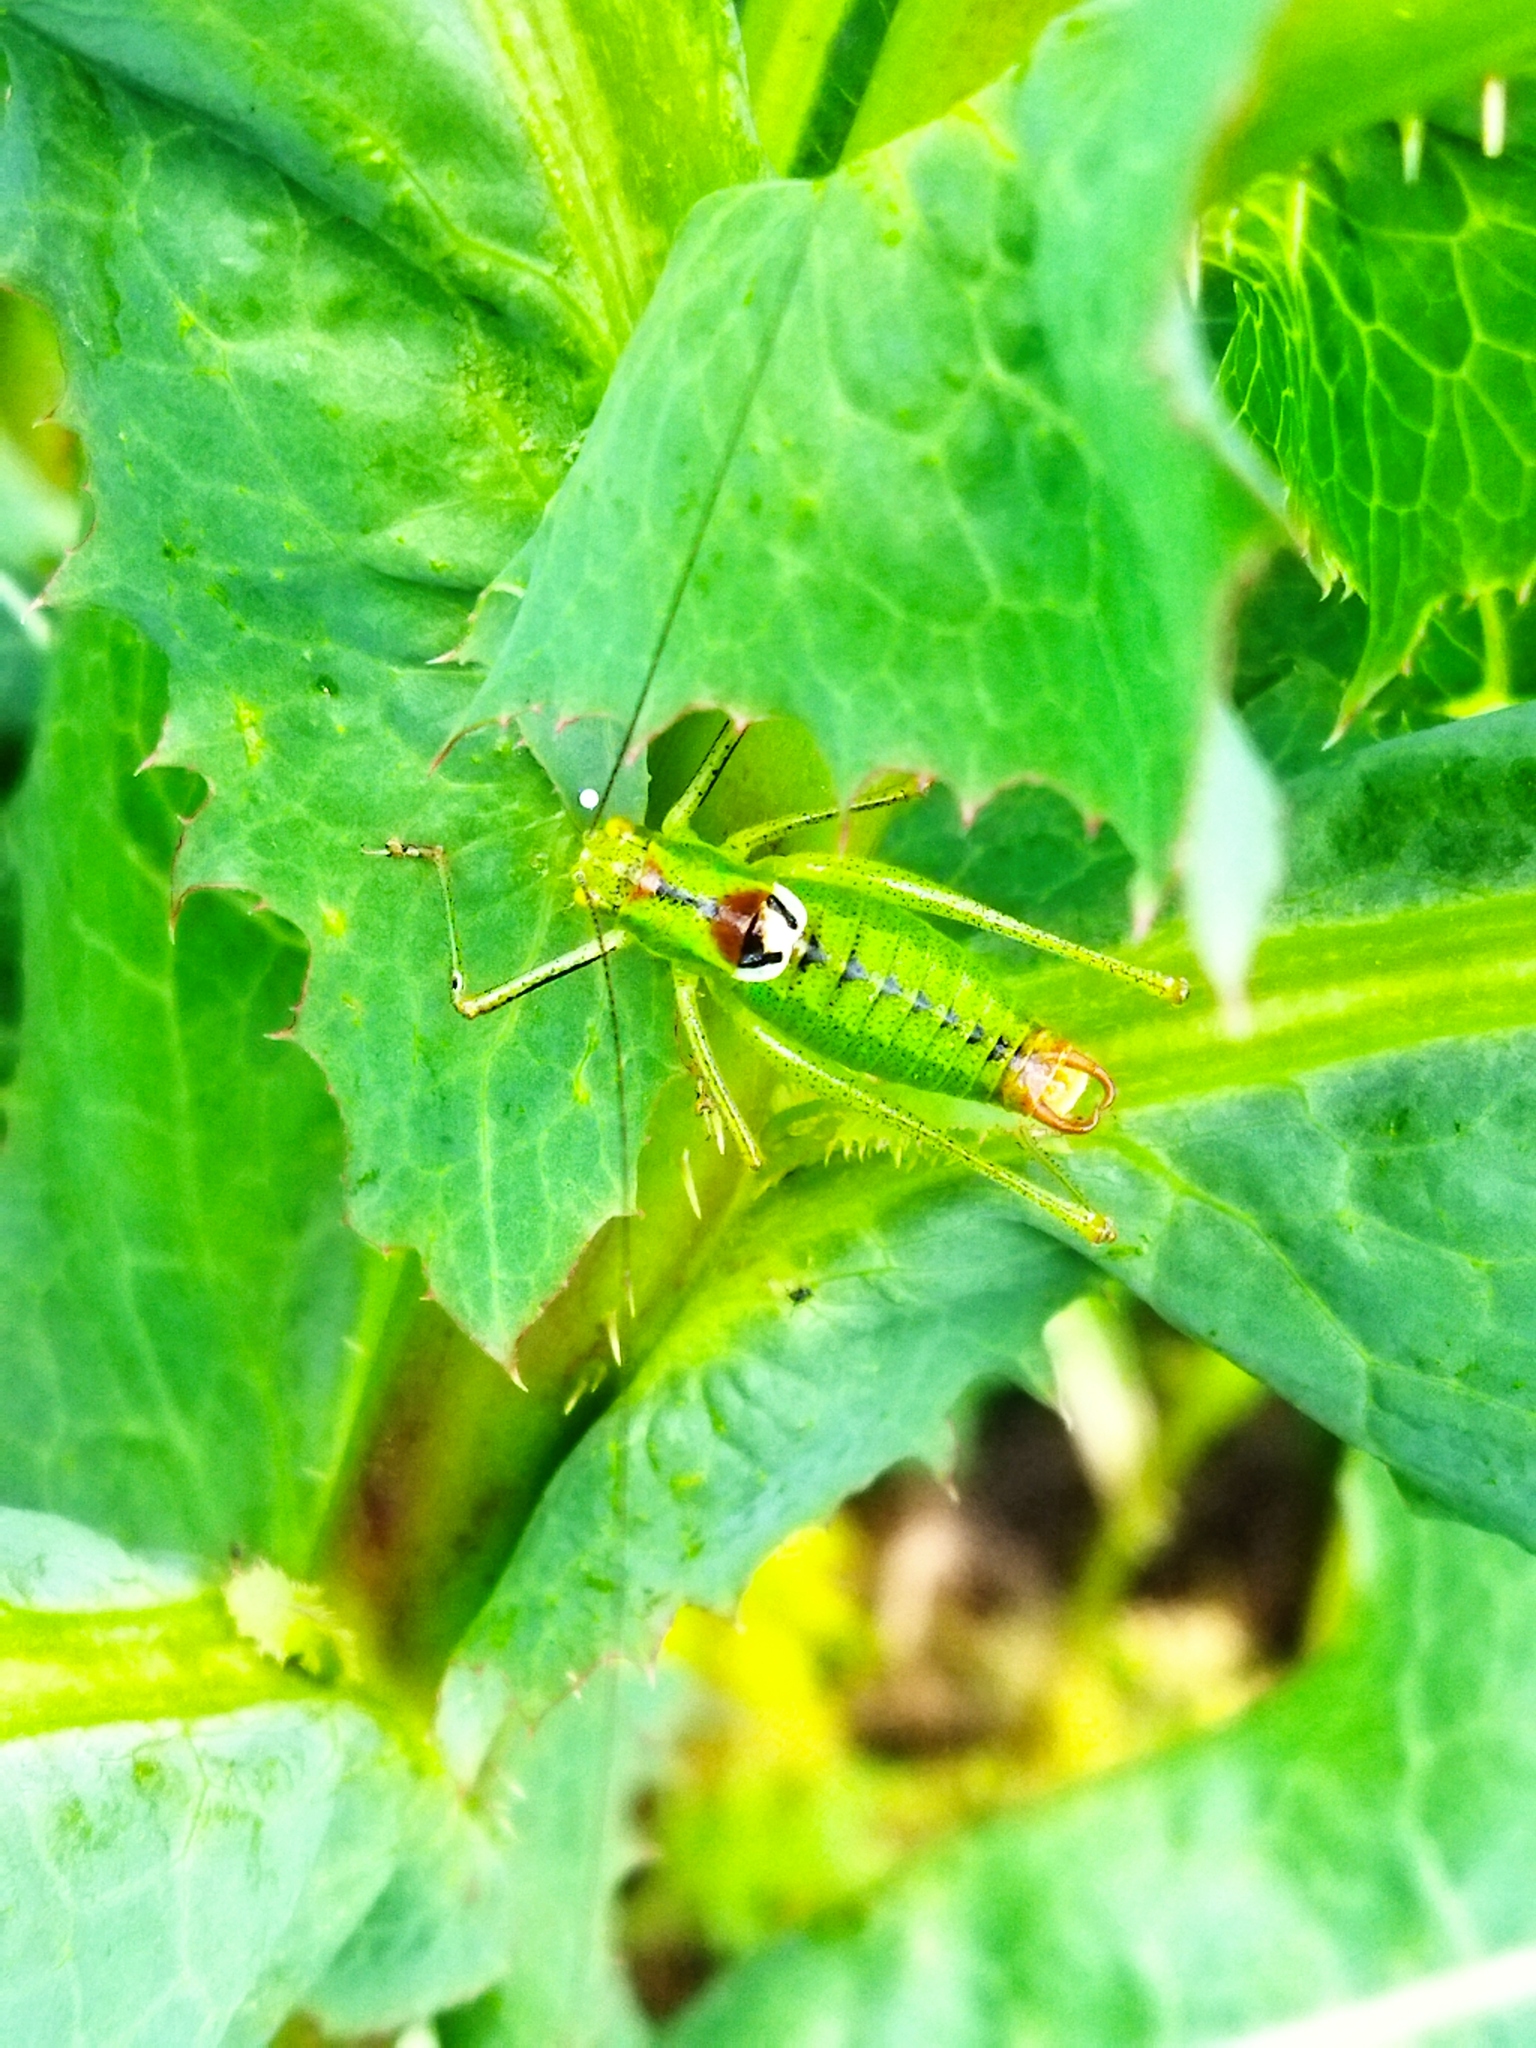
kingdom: Animalia
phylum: Arthropoda
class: Insecta
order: Orthoptera
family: Tettigoniidae
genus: Poecilimon
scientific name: Poecilimon thoracicus
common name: Bellied bright bush-cricket
